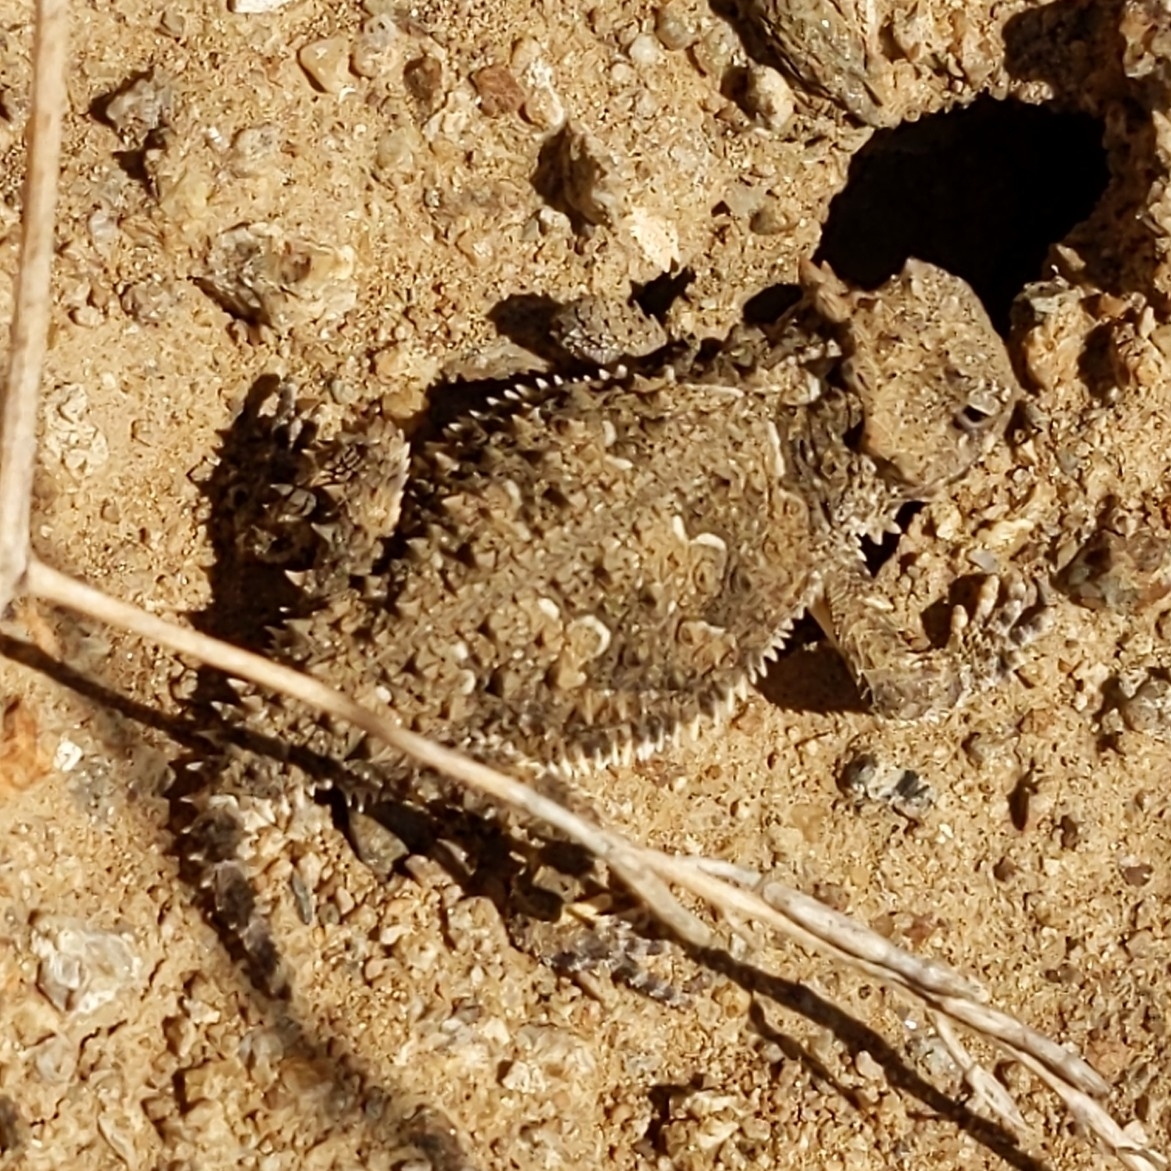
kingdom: Animalia
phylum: Chordata
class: Squamata
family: Phrynosomatidae
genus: Phrynosoma
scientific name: Phrynosoma blainvillii
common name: San diego horned lizard
